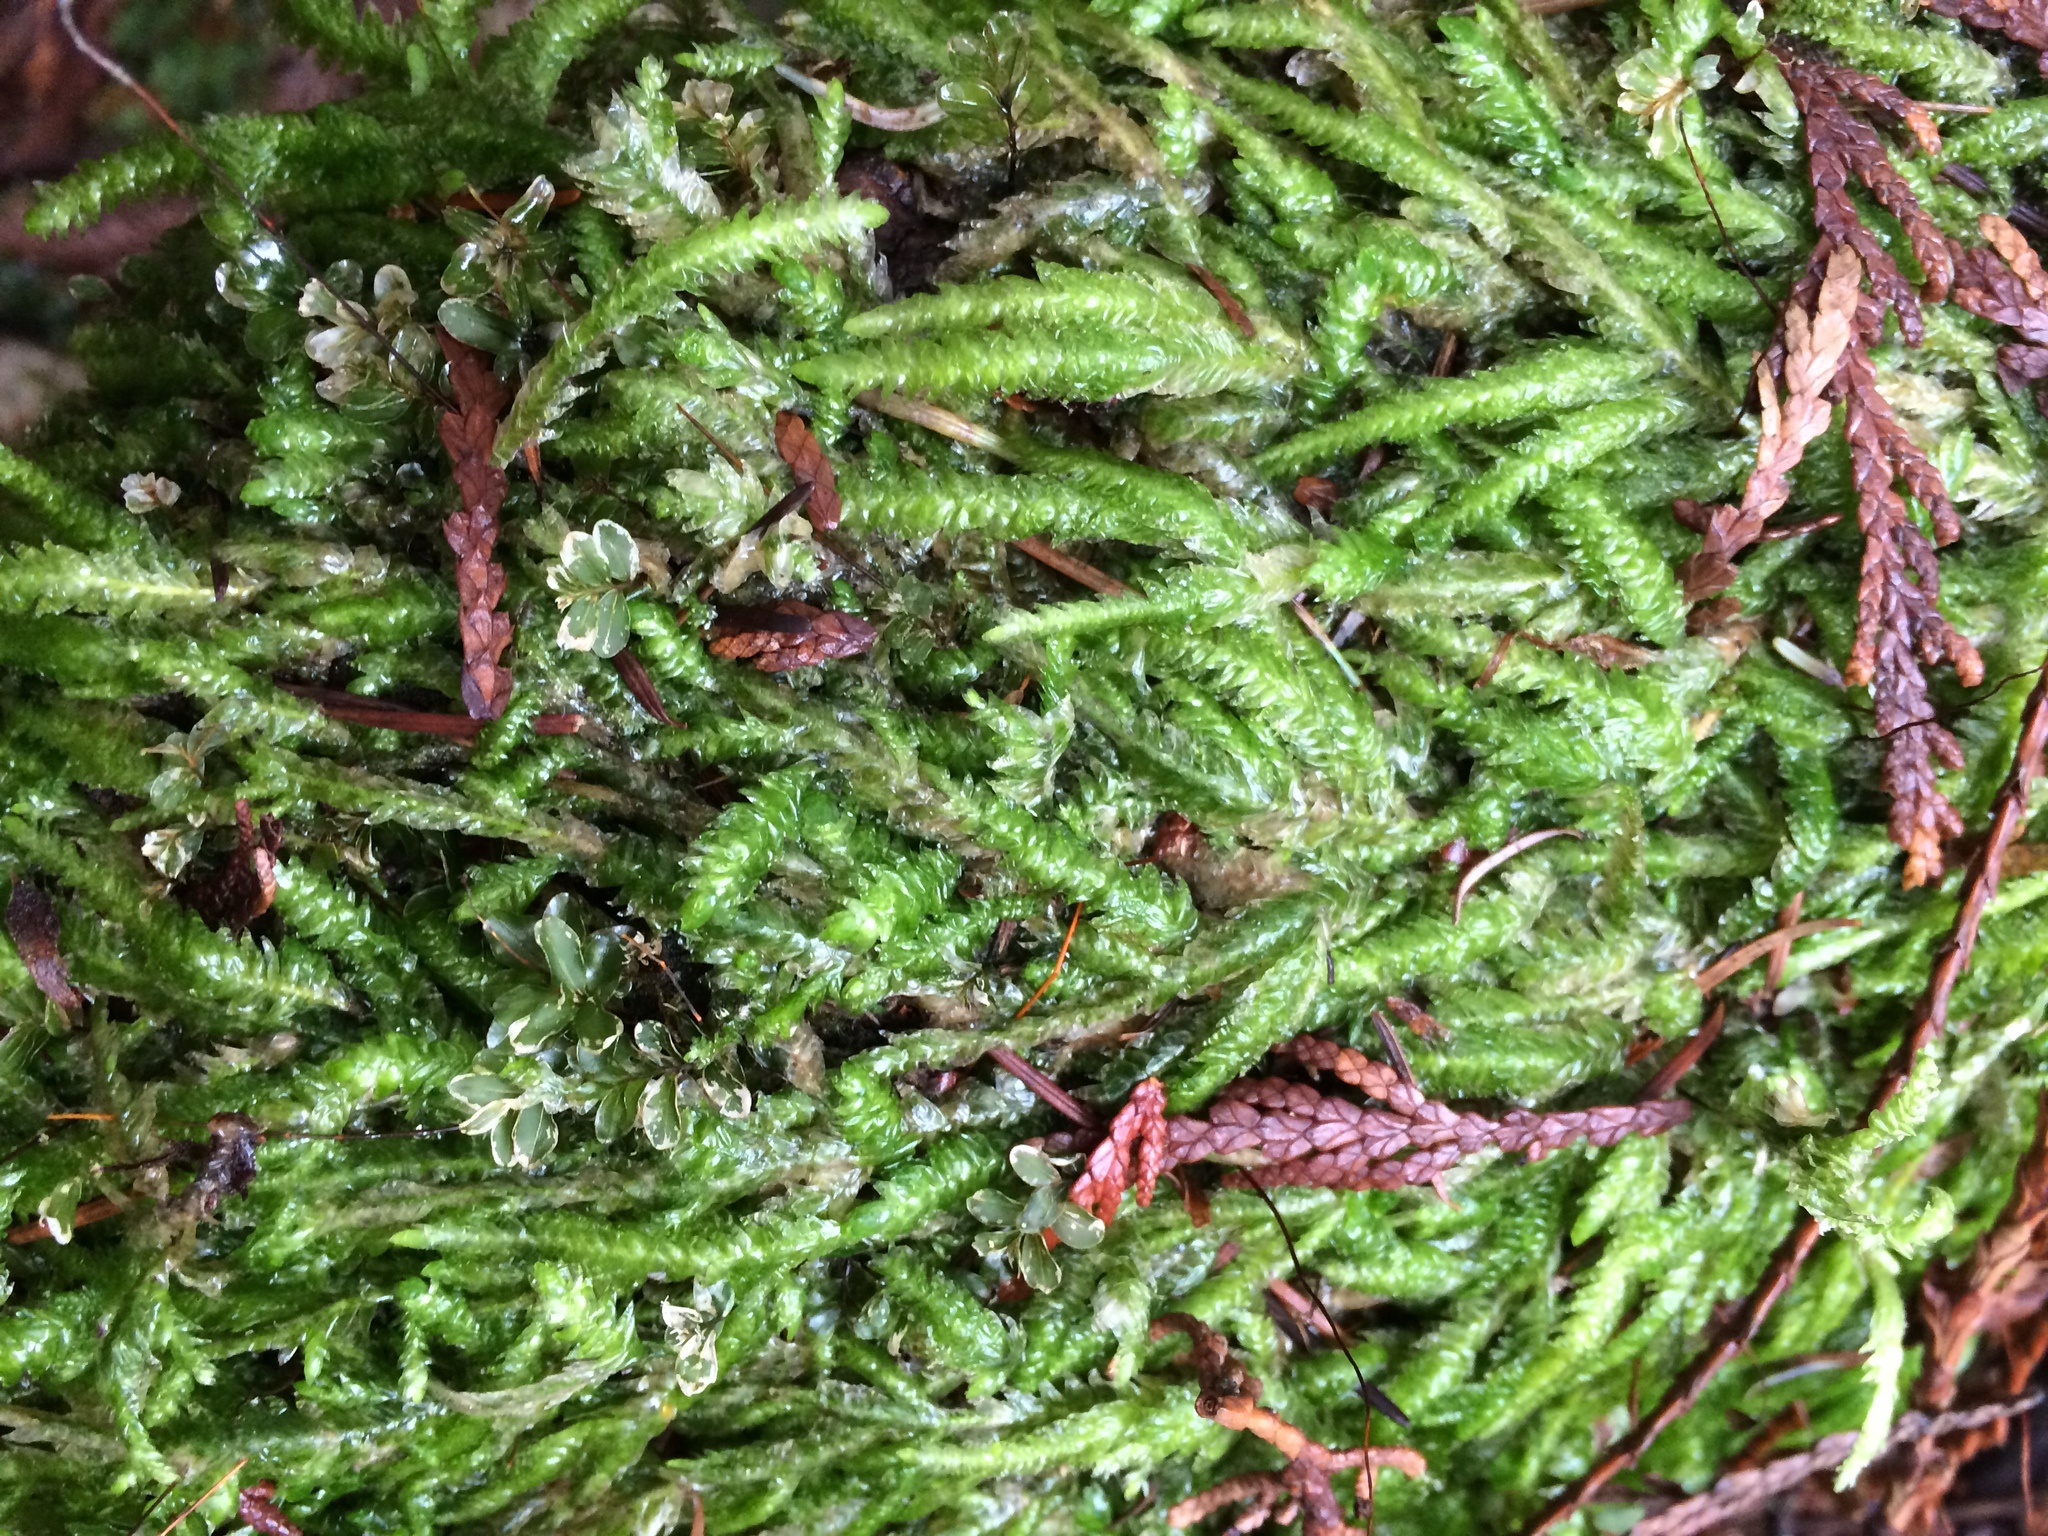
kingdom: Plantae
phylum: Bryophyta
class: Bryopsida
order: Hypnales
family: Plagiotheciaceae
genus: Plagiothecium
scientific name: Plagiothecium undulatum
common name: Waved silk-moss
